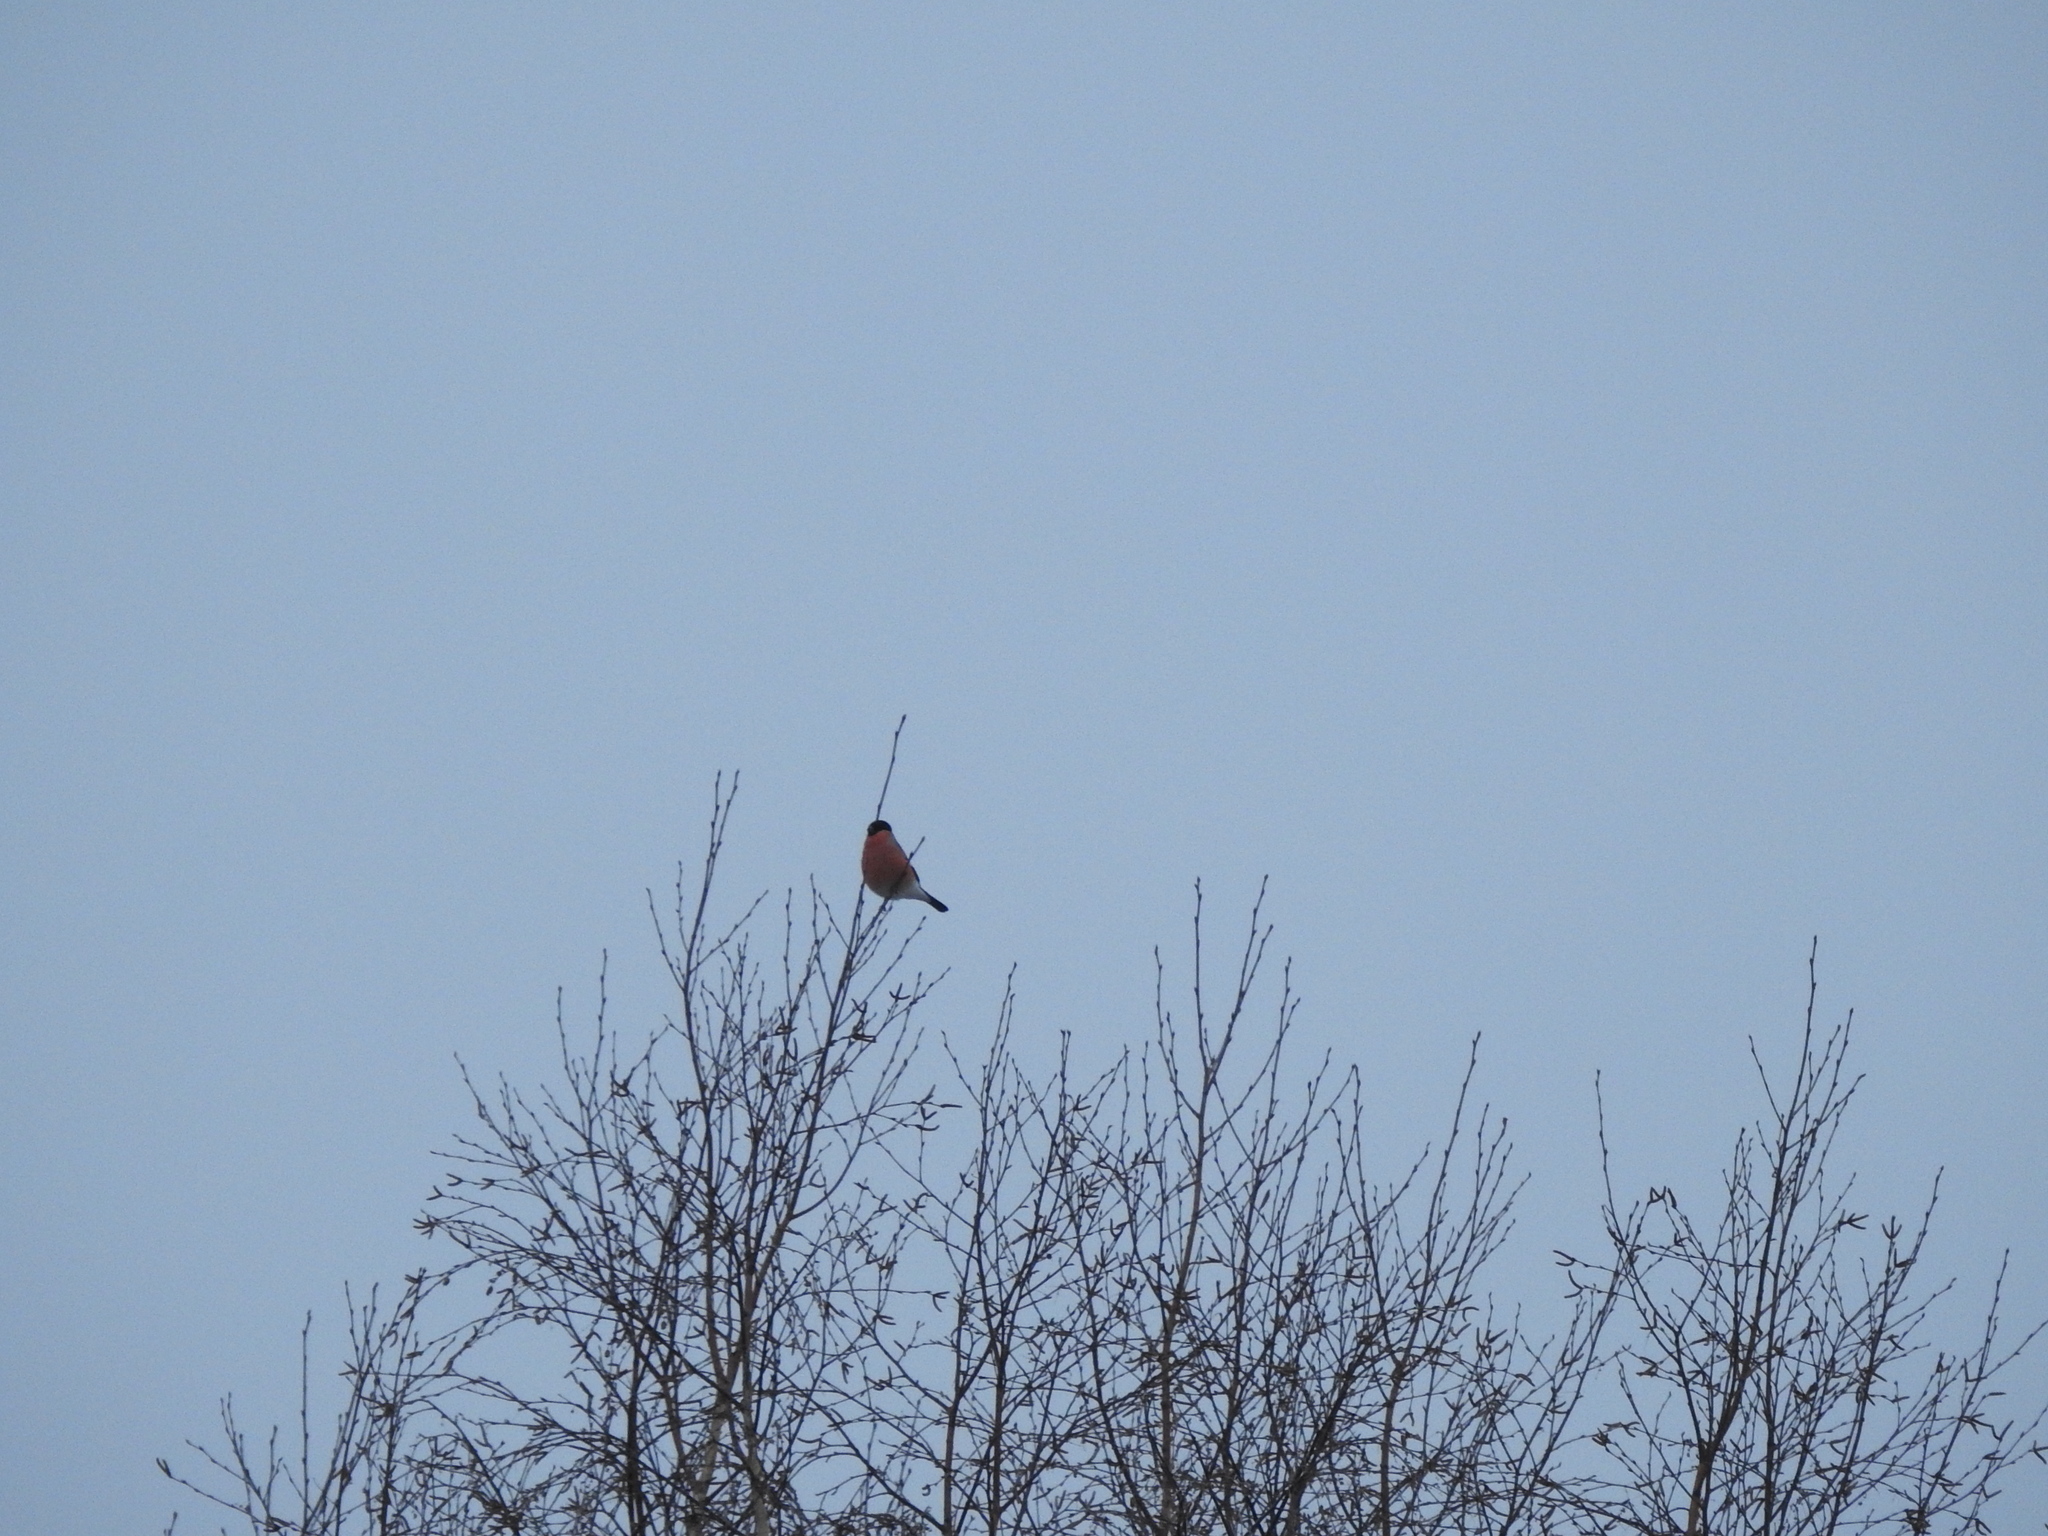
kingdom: Animalia
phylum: Chordata
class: Aves
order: Passeriformes
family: Fringillidae
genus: Pyrrhula
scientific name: Pyrrhula pyrrhula
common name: Eurasian bullfinch
